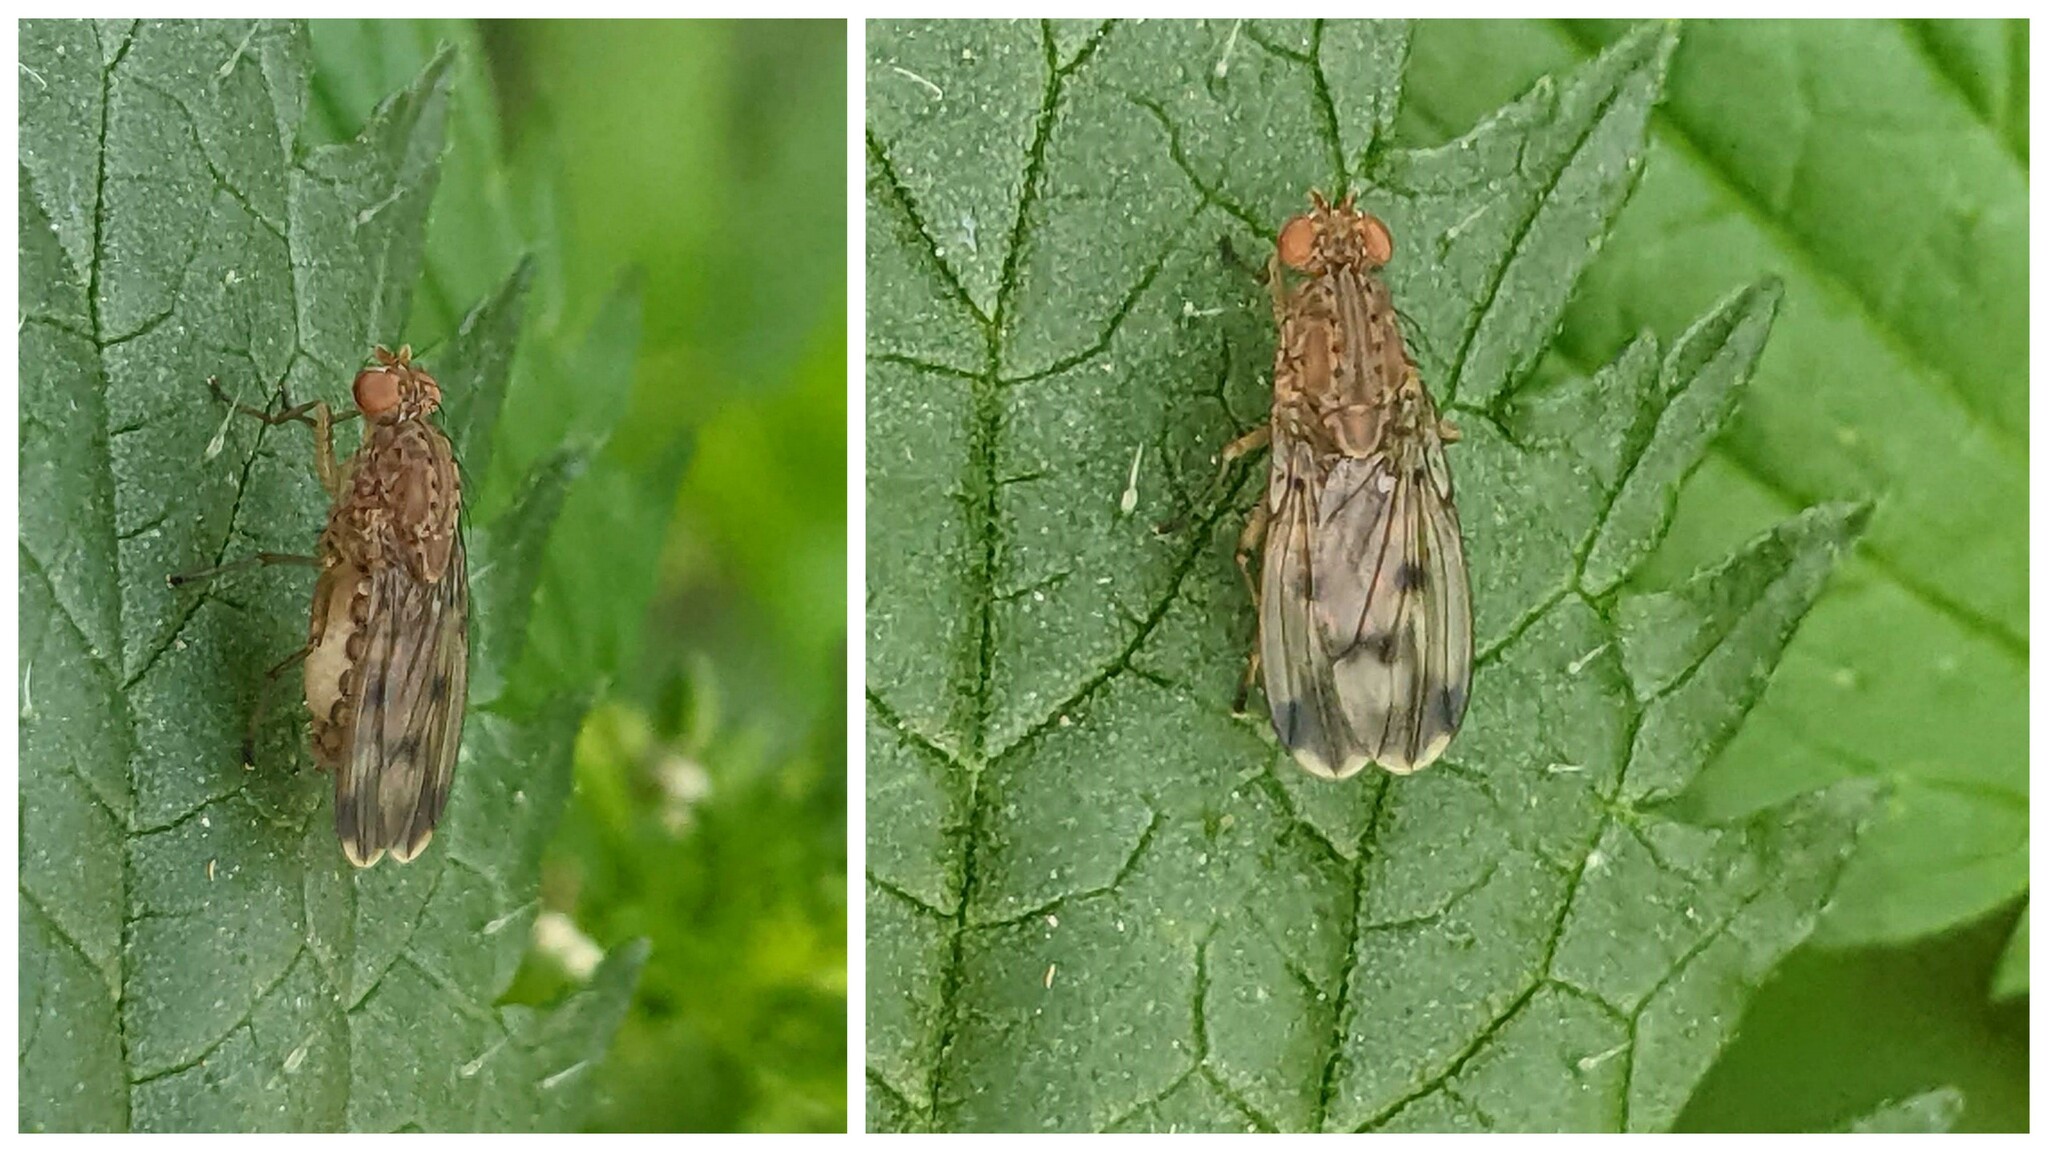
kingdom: Animalia
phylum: Arthropoda
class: Insecta
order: Diptera
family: Heleomyzidae
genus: Suillia
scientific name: Suillia variegata
